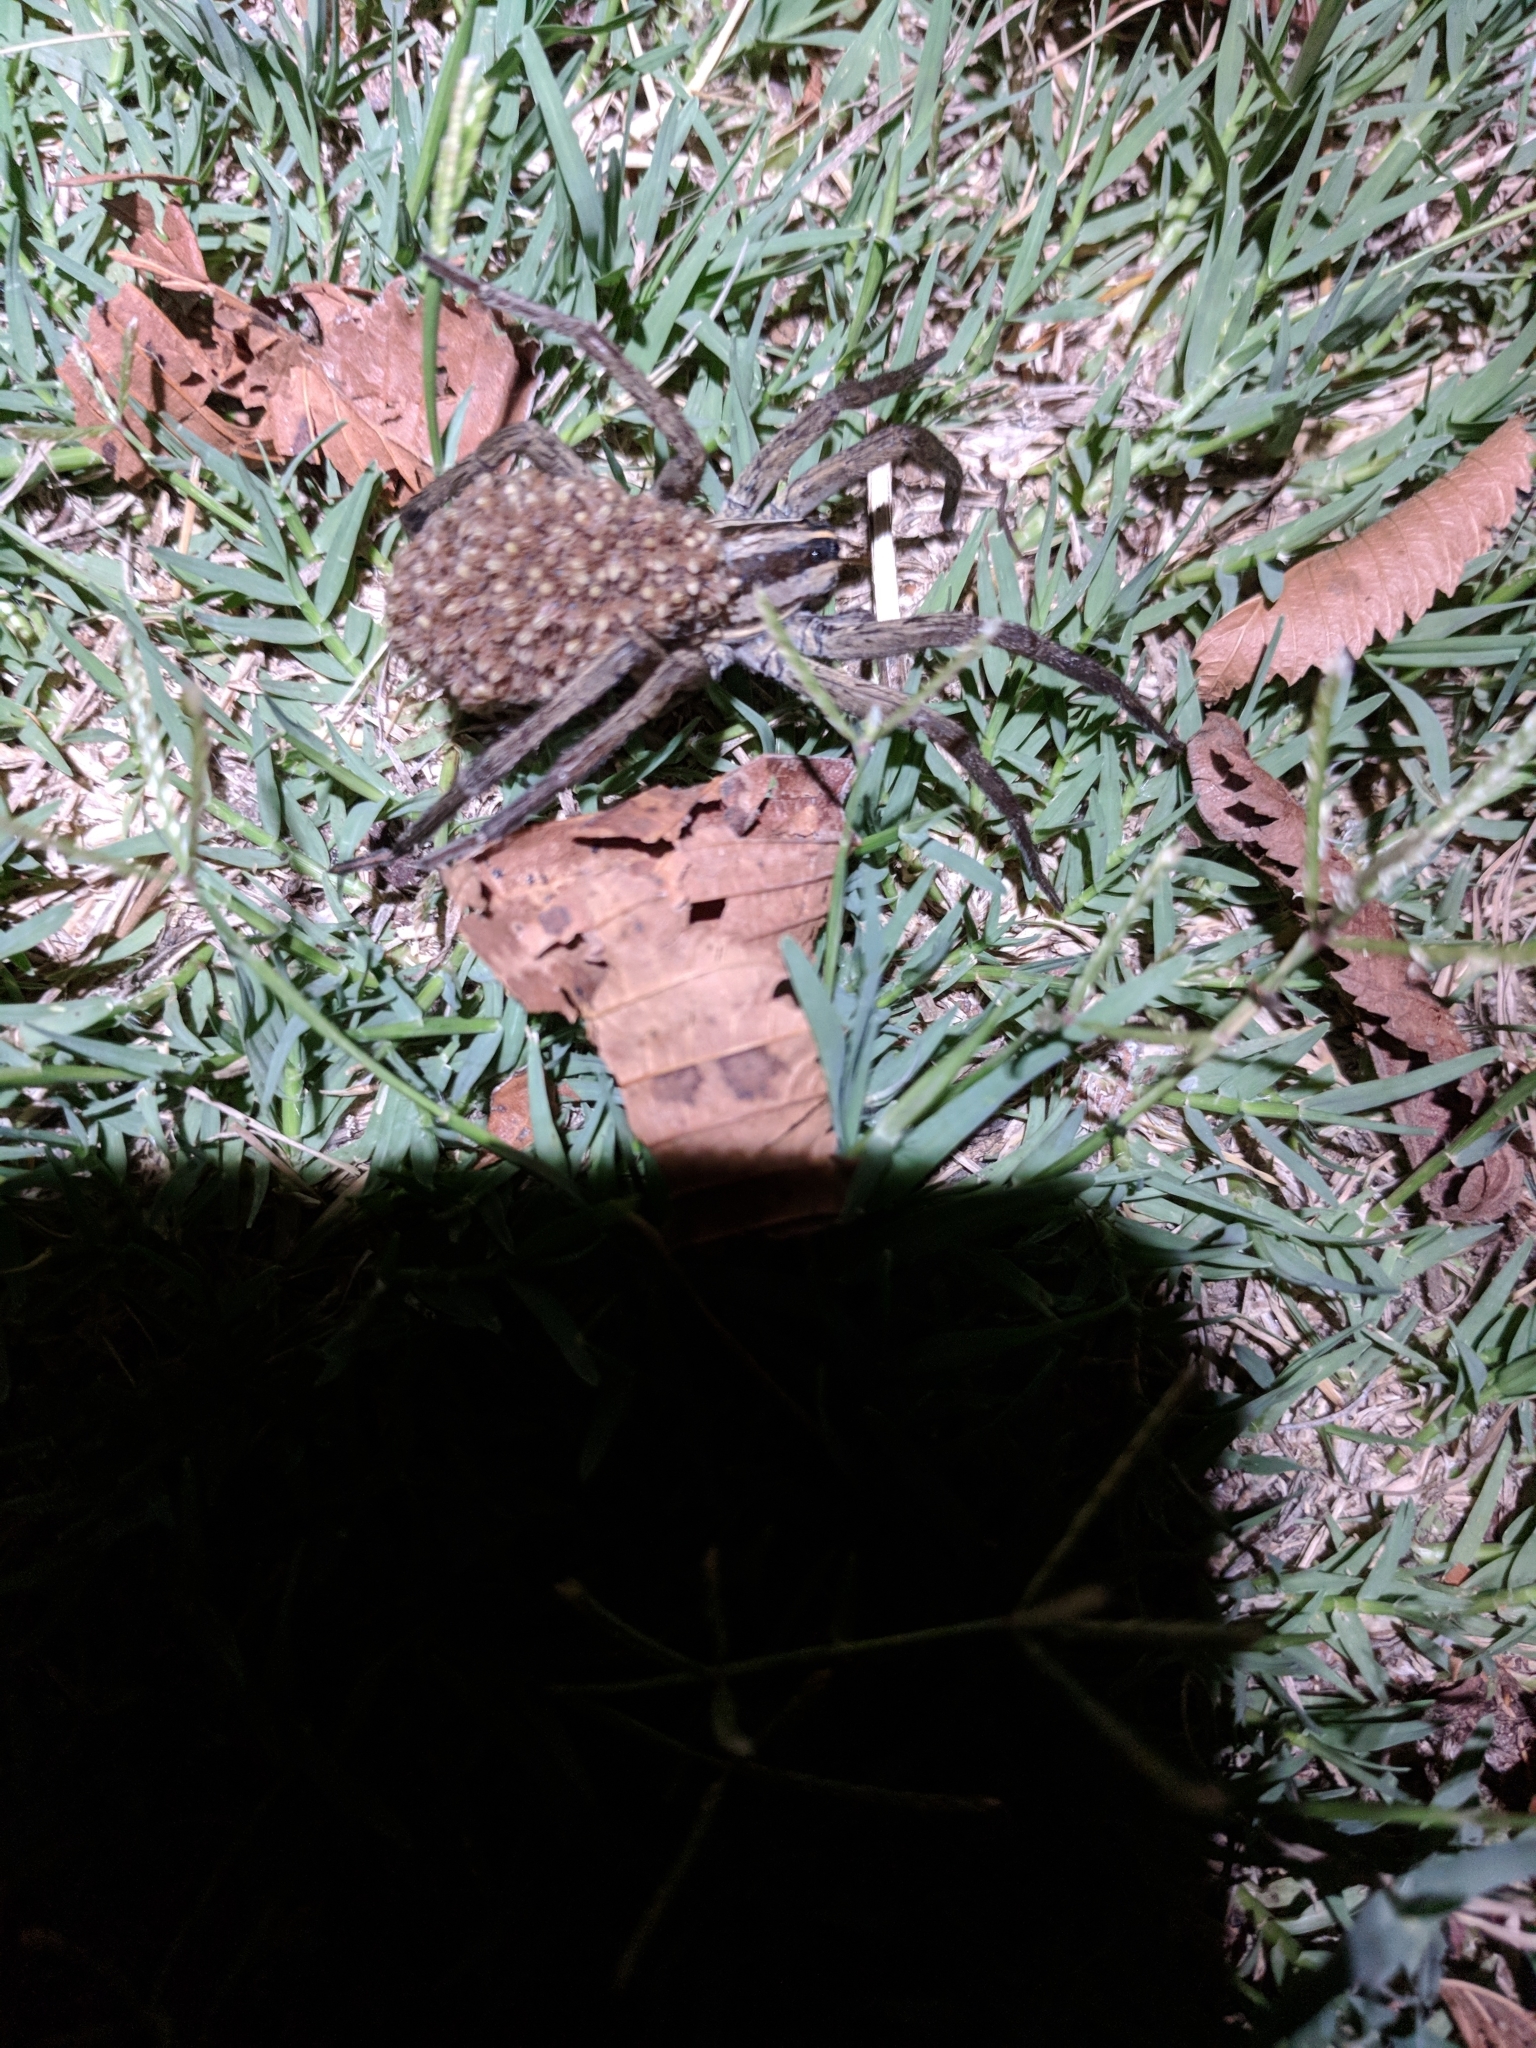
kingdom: Animalia
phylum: Arthropoda
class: Arachnida
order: Araneae
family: Lycosidae
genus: Rabidosa
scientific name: Rabidosa
